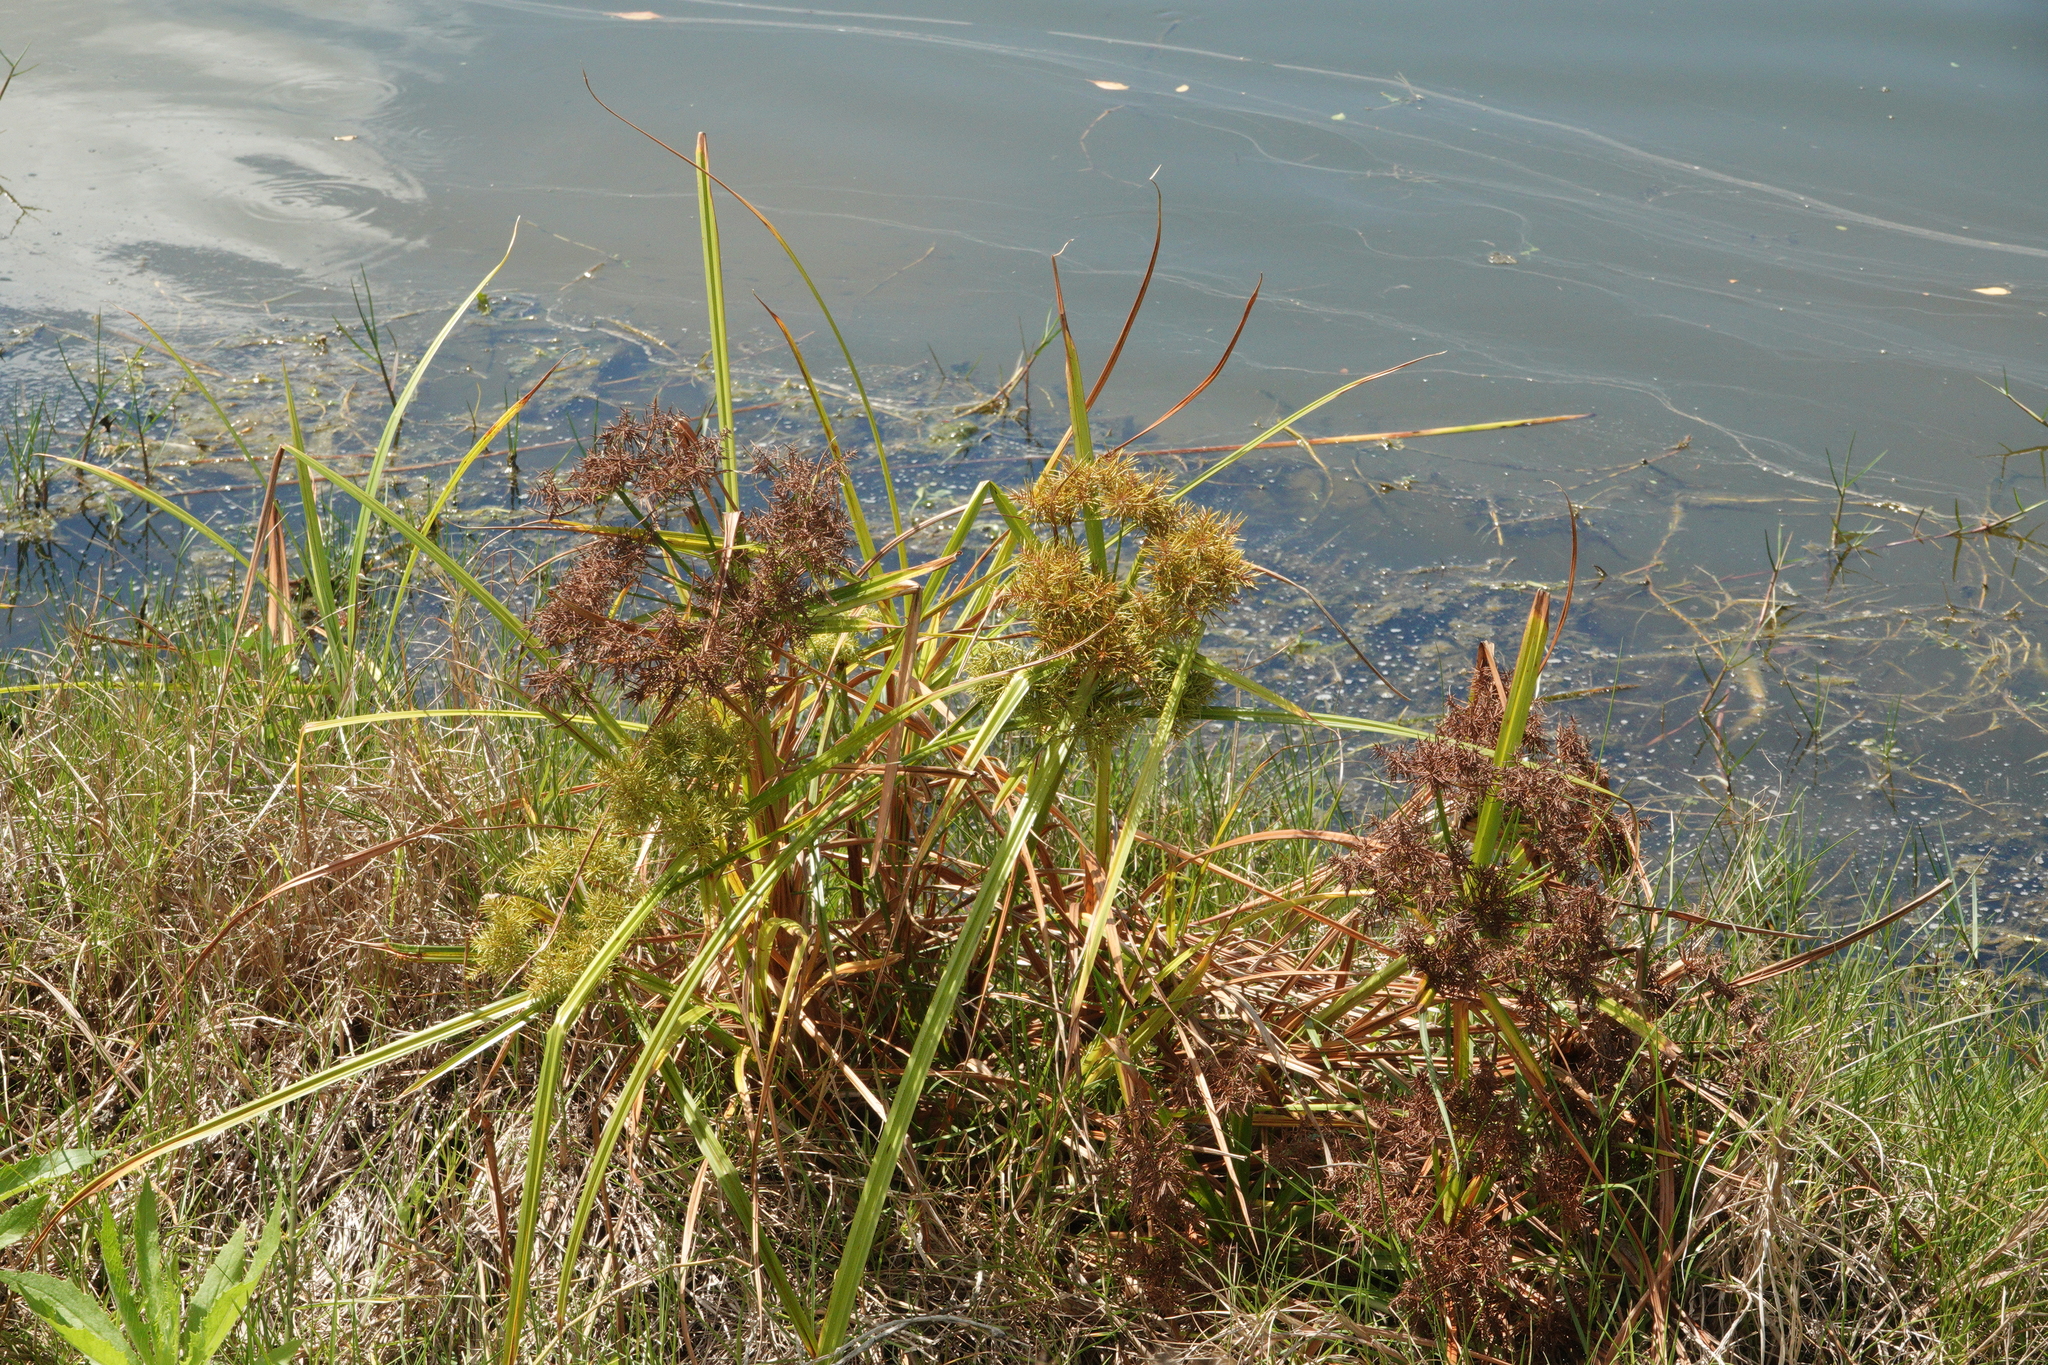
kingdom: Plantae
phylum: Tracheophyta
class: Liliopsida
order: Poales
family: Cyperaceae
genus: Cyperus
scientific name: Cyperus odoratus
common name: Fragrant flatsedge
